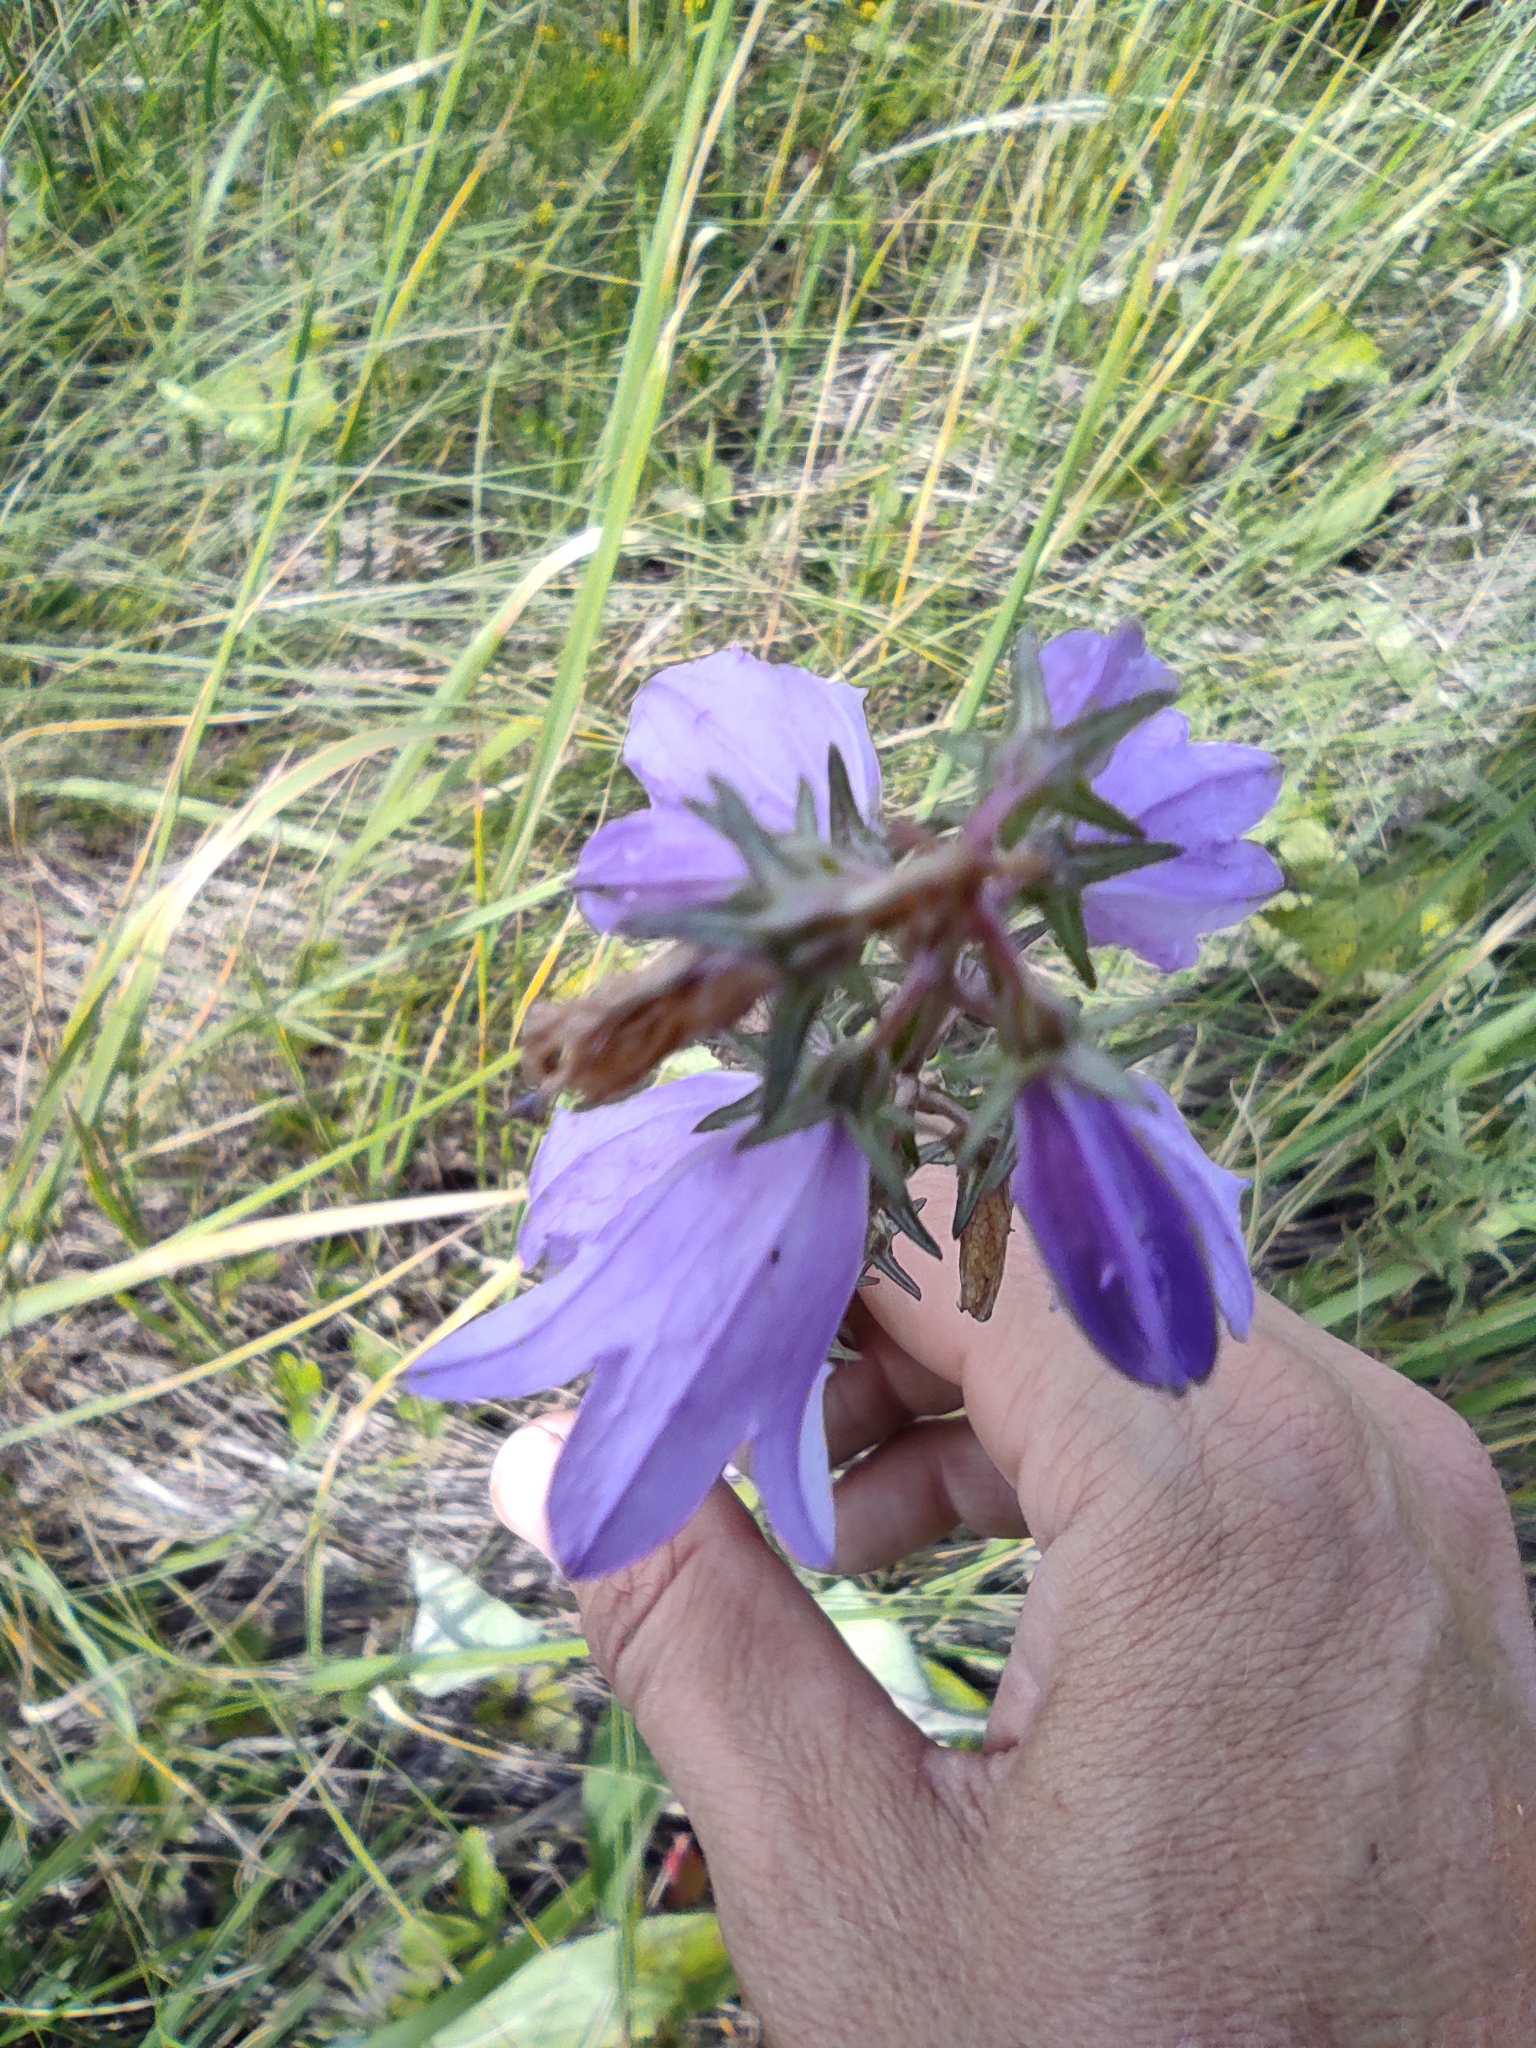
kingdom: Plantae
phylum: Tracheophyta
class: Magnoliopsida
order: Asterales
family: Campanulaceae
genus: Campanula
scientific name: Campanula bononiensis
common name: Pale bellflower
